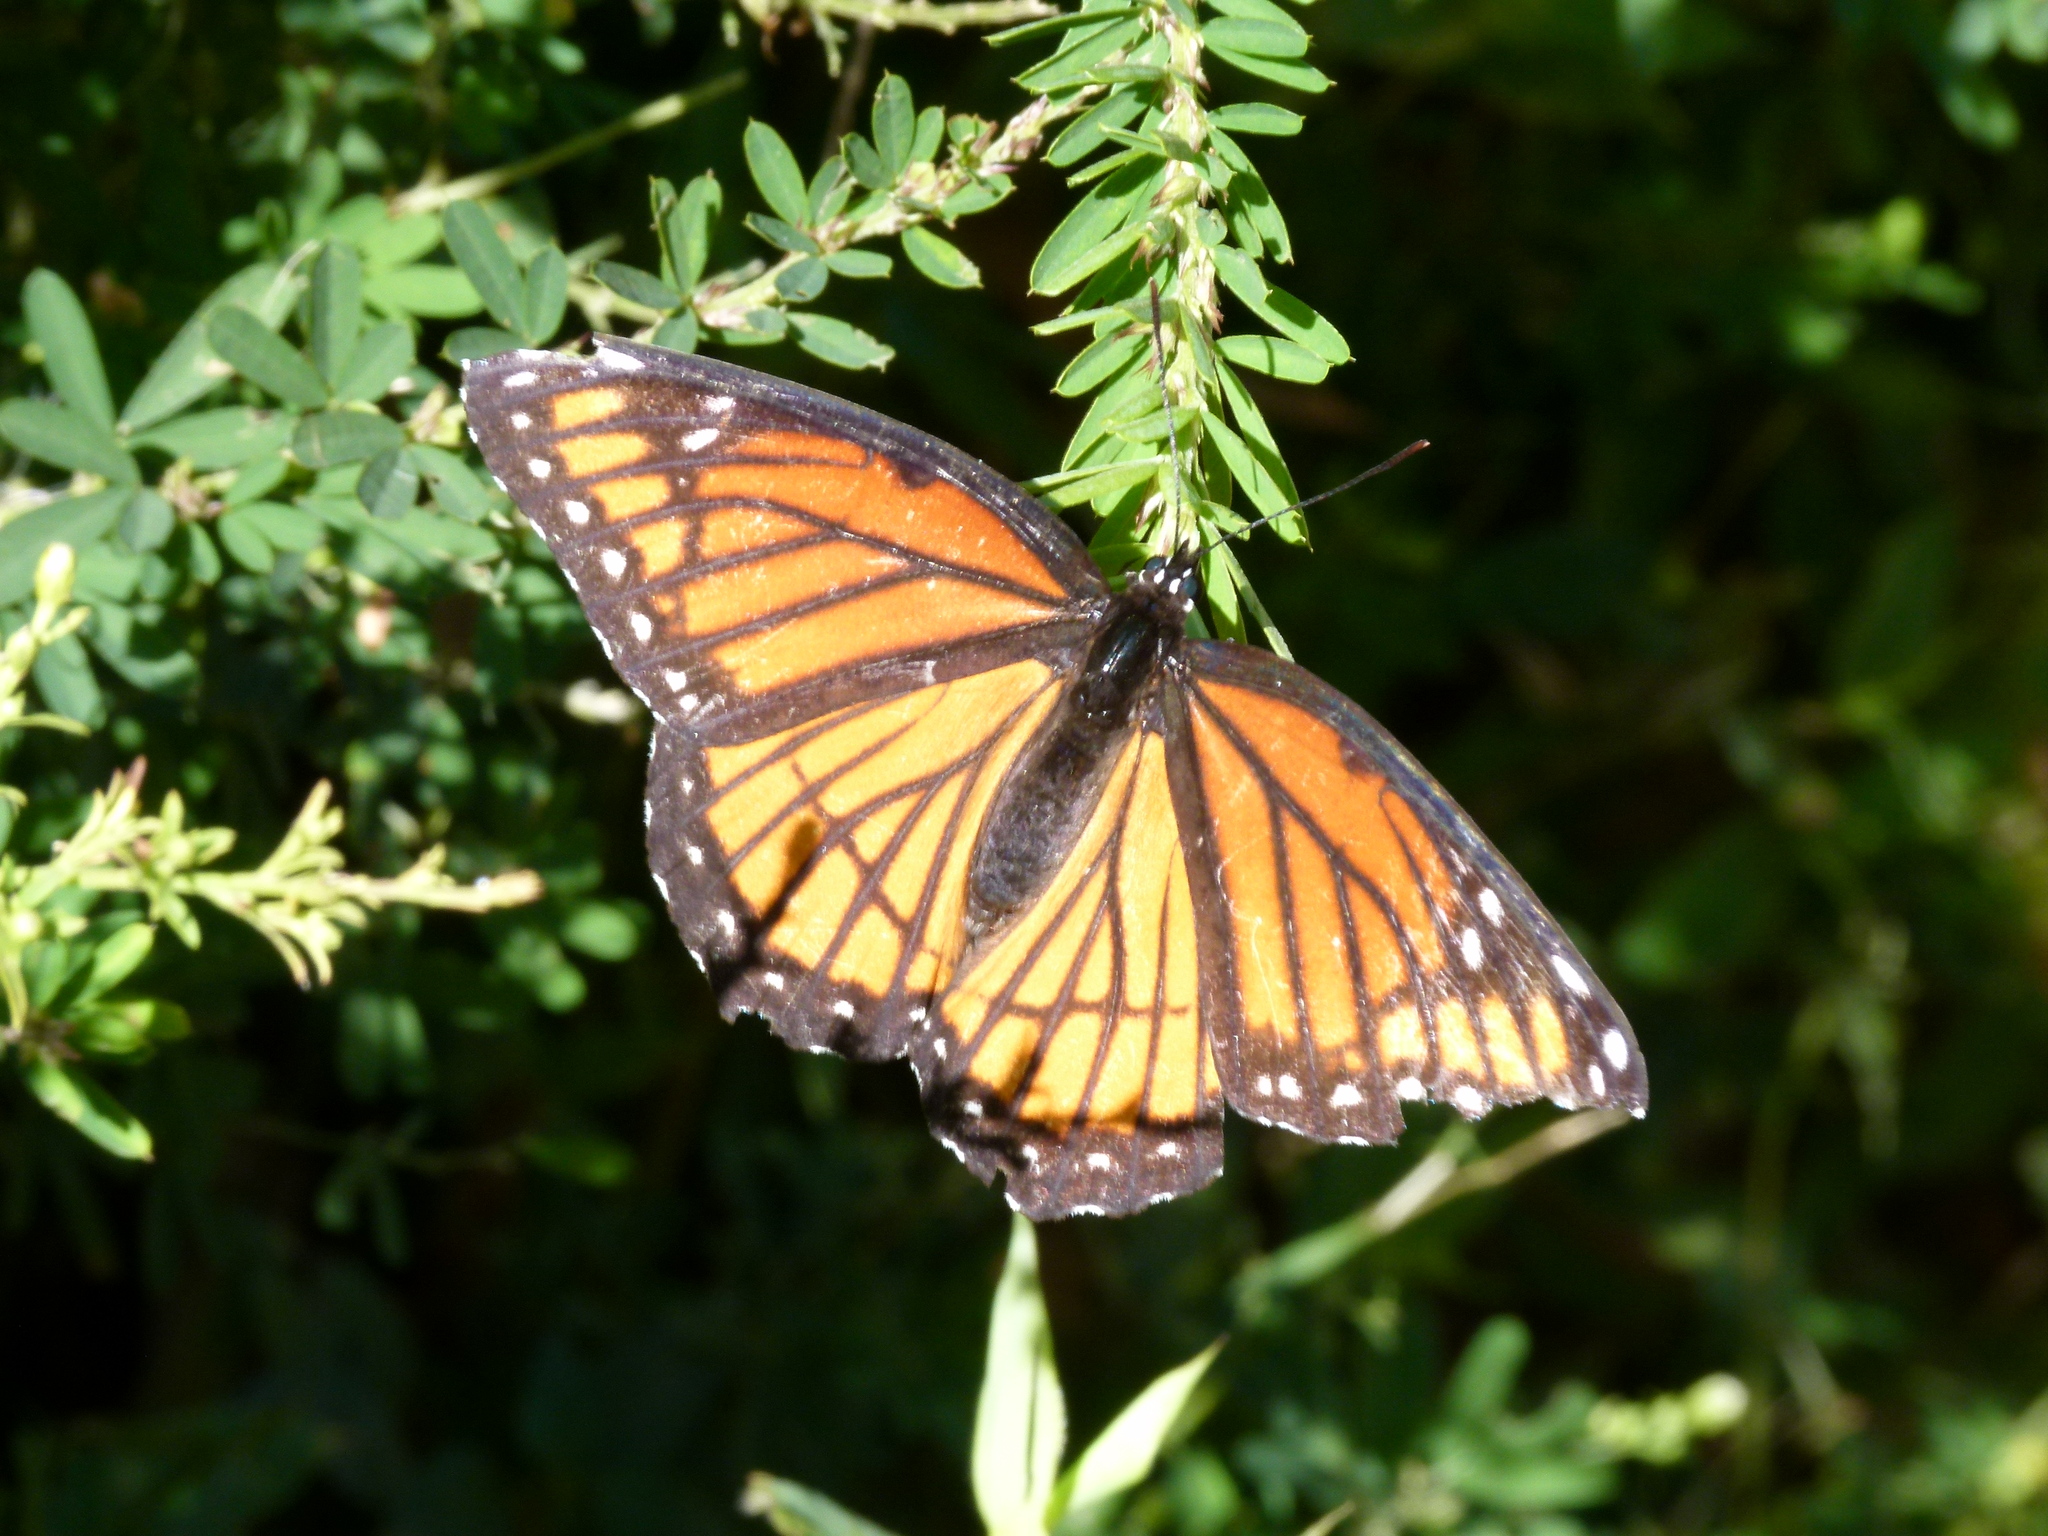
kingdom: Animalia
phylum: Arthropoda
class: Insecta
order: Lepidoptera
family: Nymphalidae
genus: Limenitis
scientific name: Limenitis archippus
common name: Viceroy
